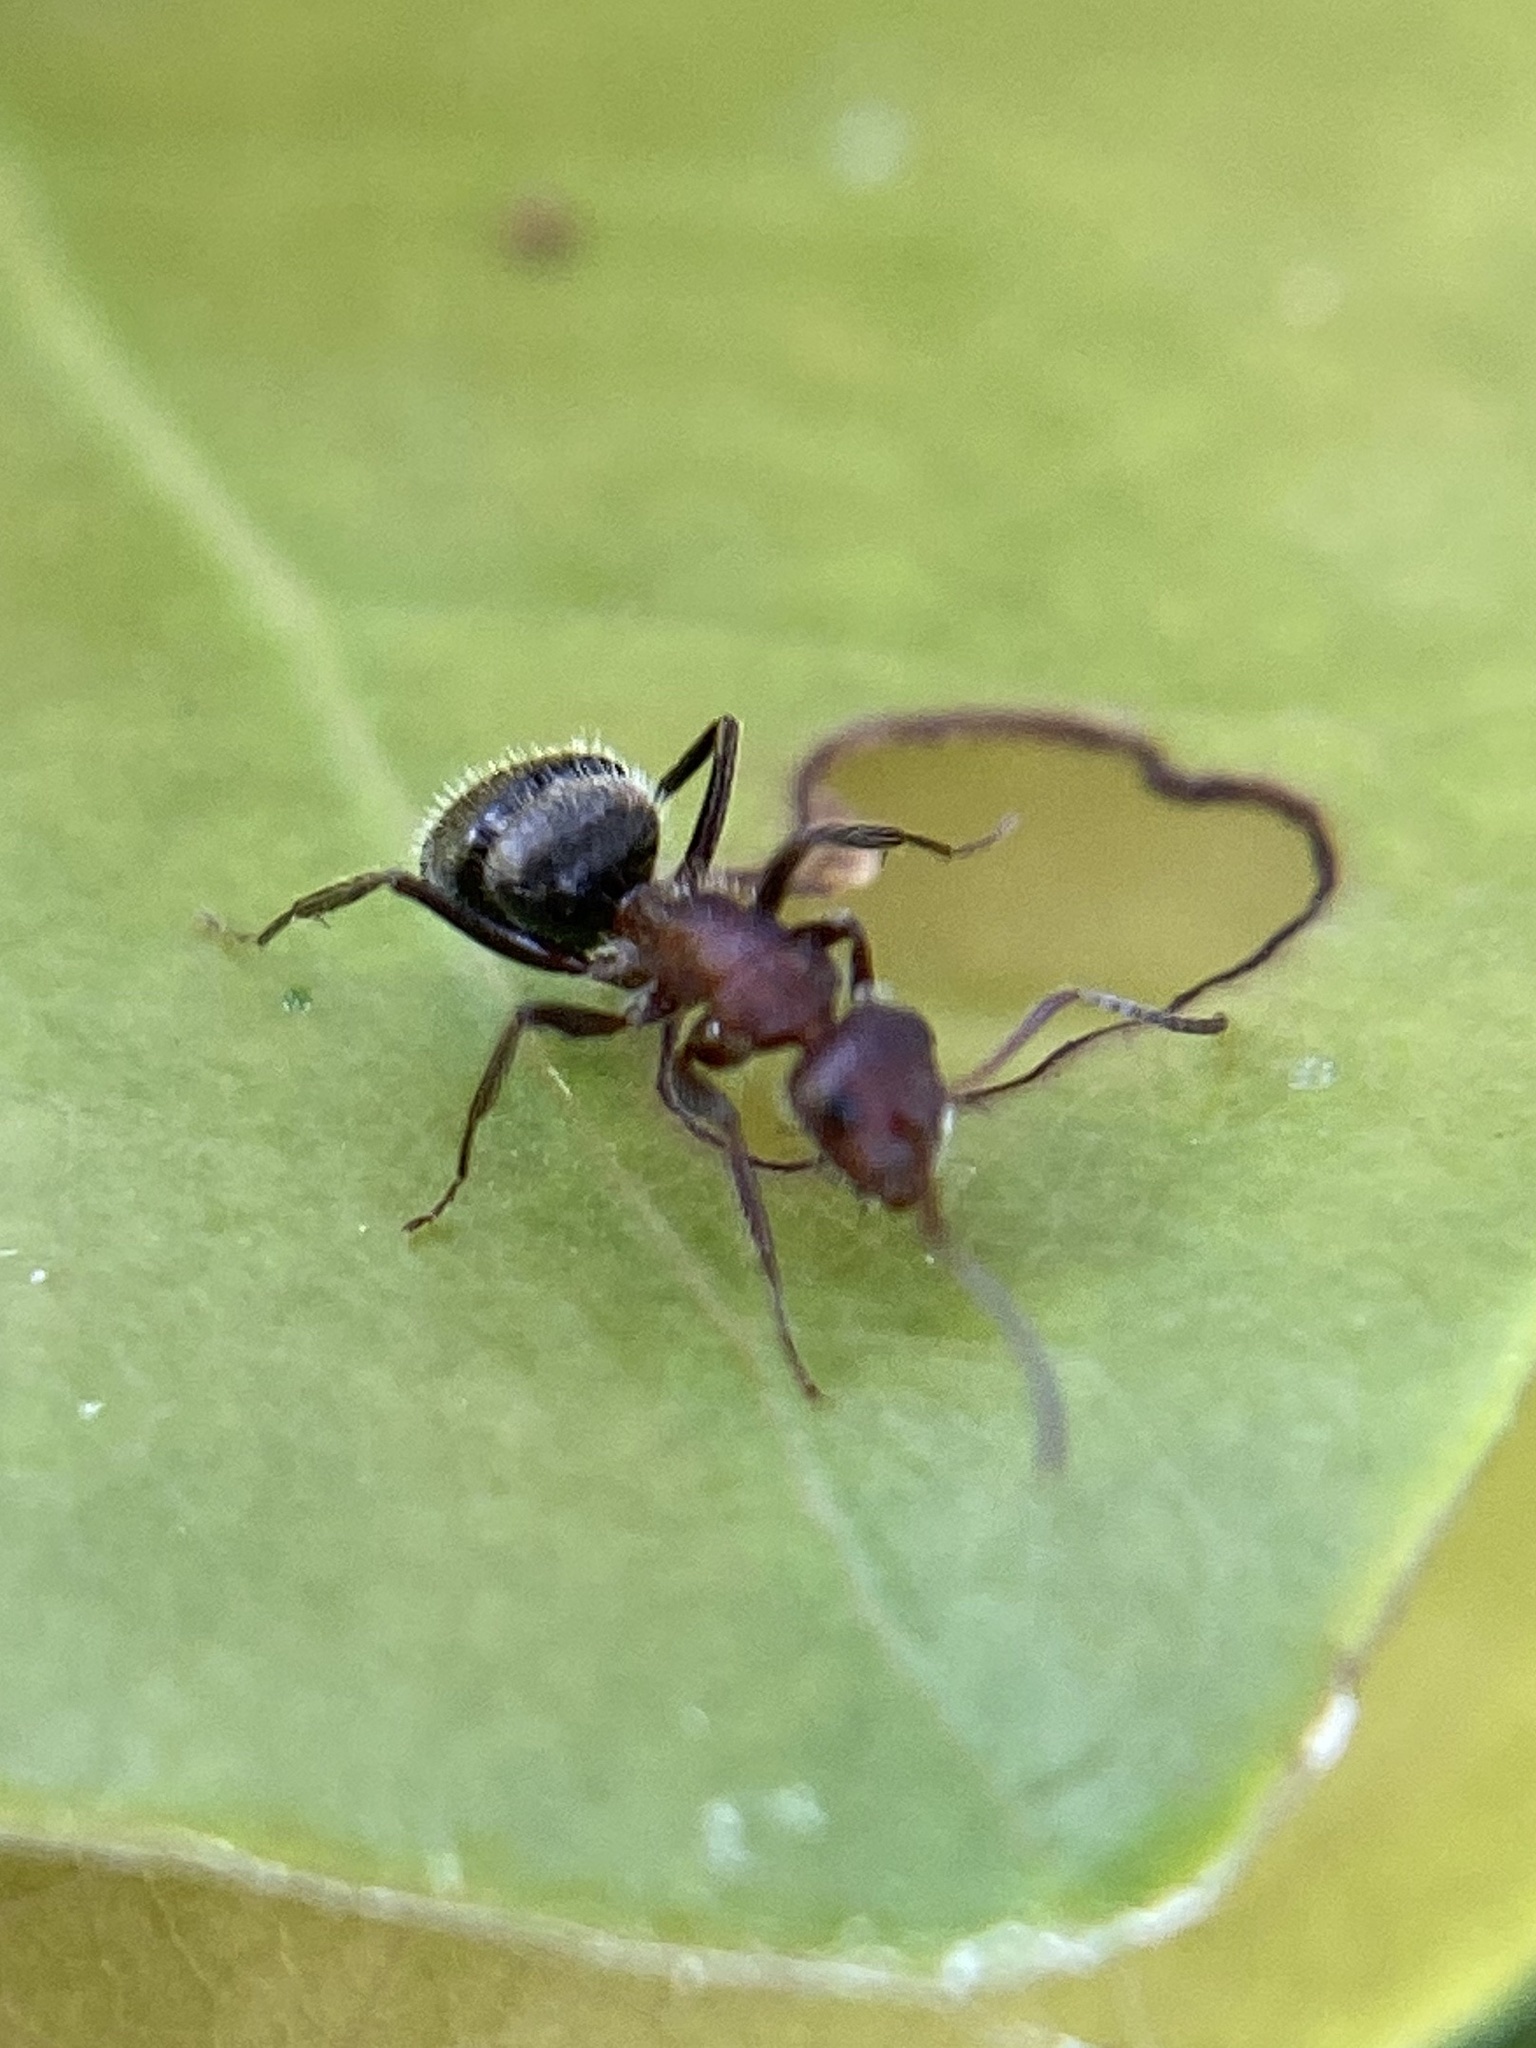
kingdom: Animalia
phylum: Arthropoda
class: Insecta
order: Hymenoptera
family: Formicidae
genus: Camponotus
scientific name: Camponotus planatus
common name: Compact carpenter ant
